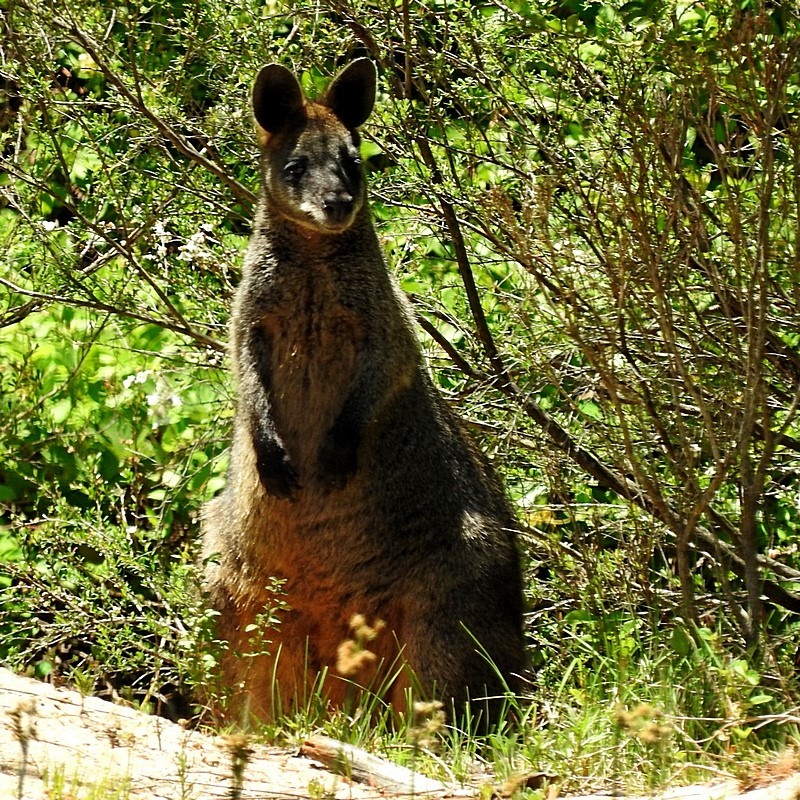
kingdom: Animalia
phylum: Chordata
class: Mammalia
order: Diprotodontia
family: Macropodidae
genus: Wallabia
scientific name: Wallabia bicolor
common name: Swamp wallaby
